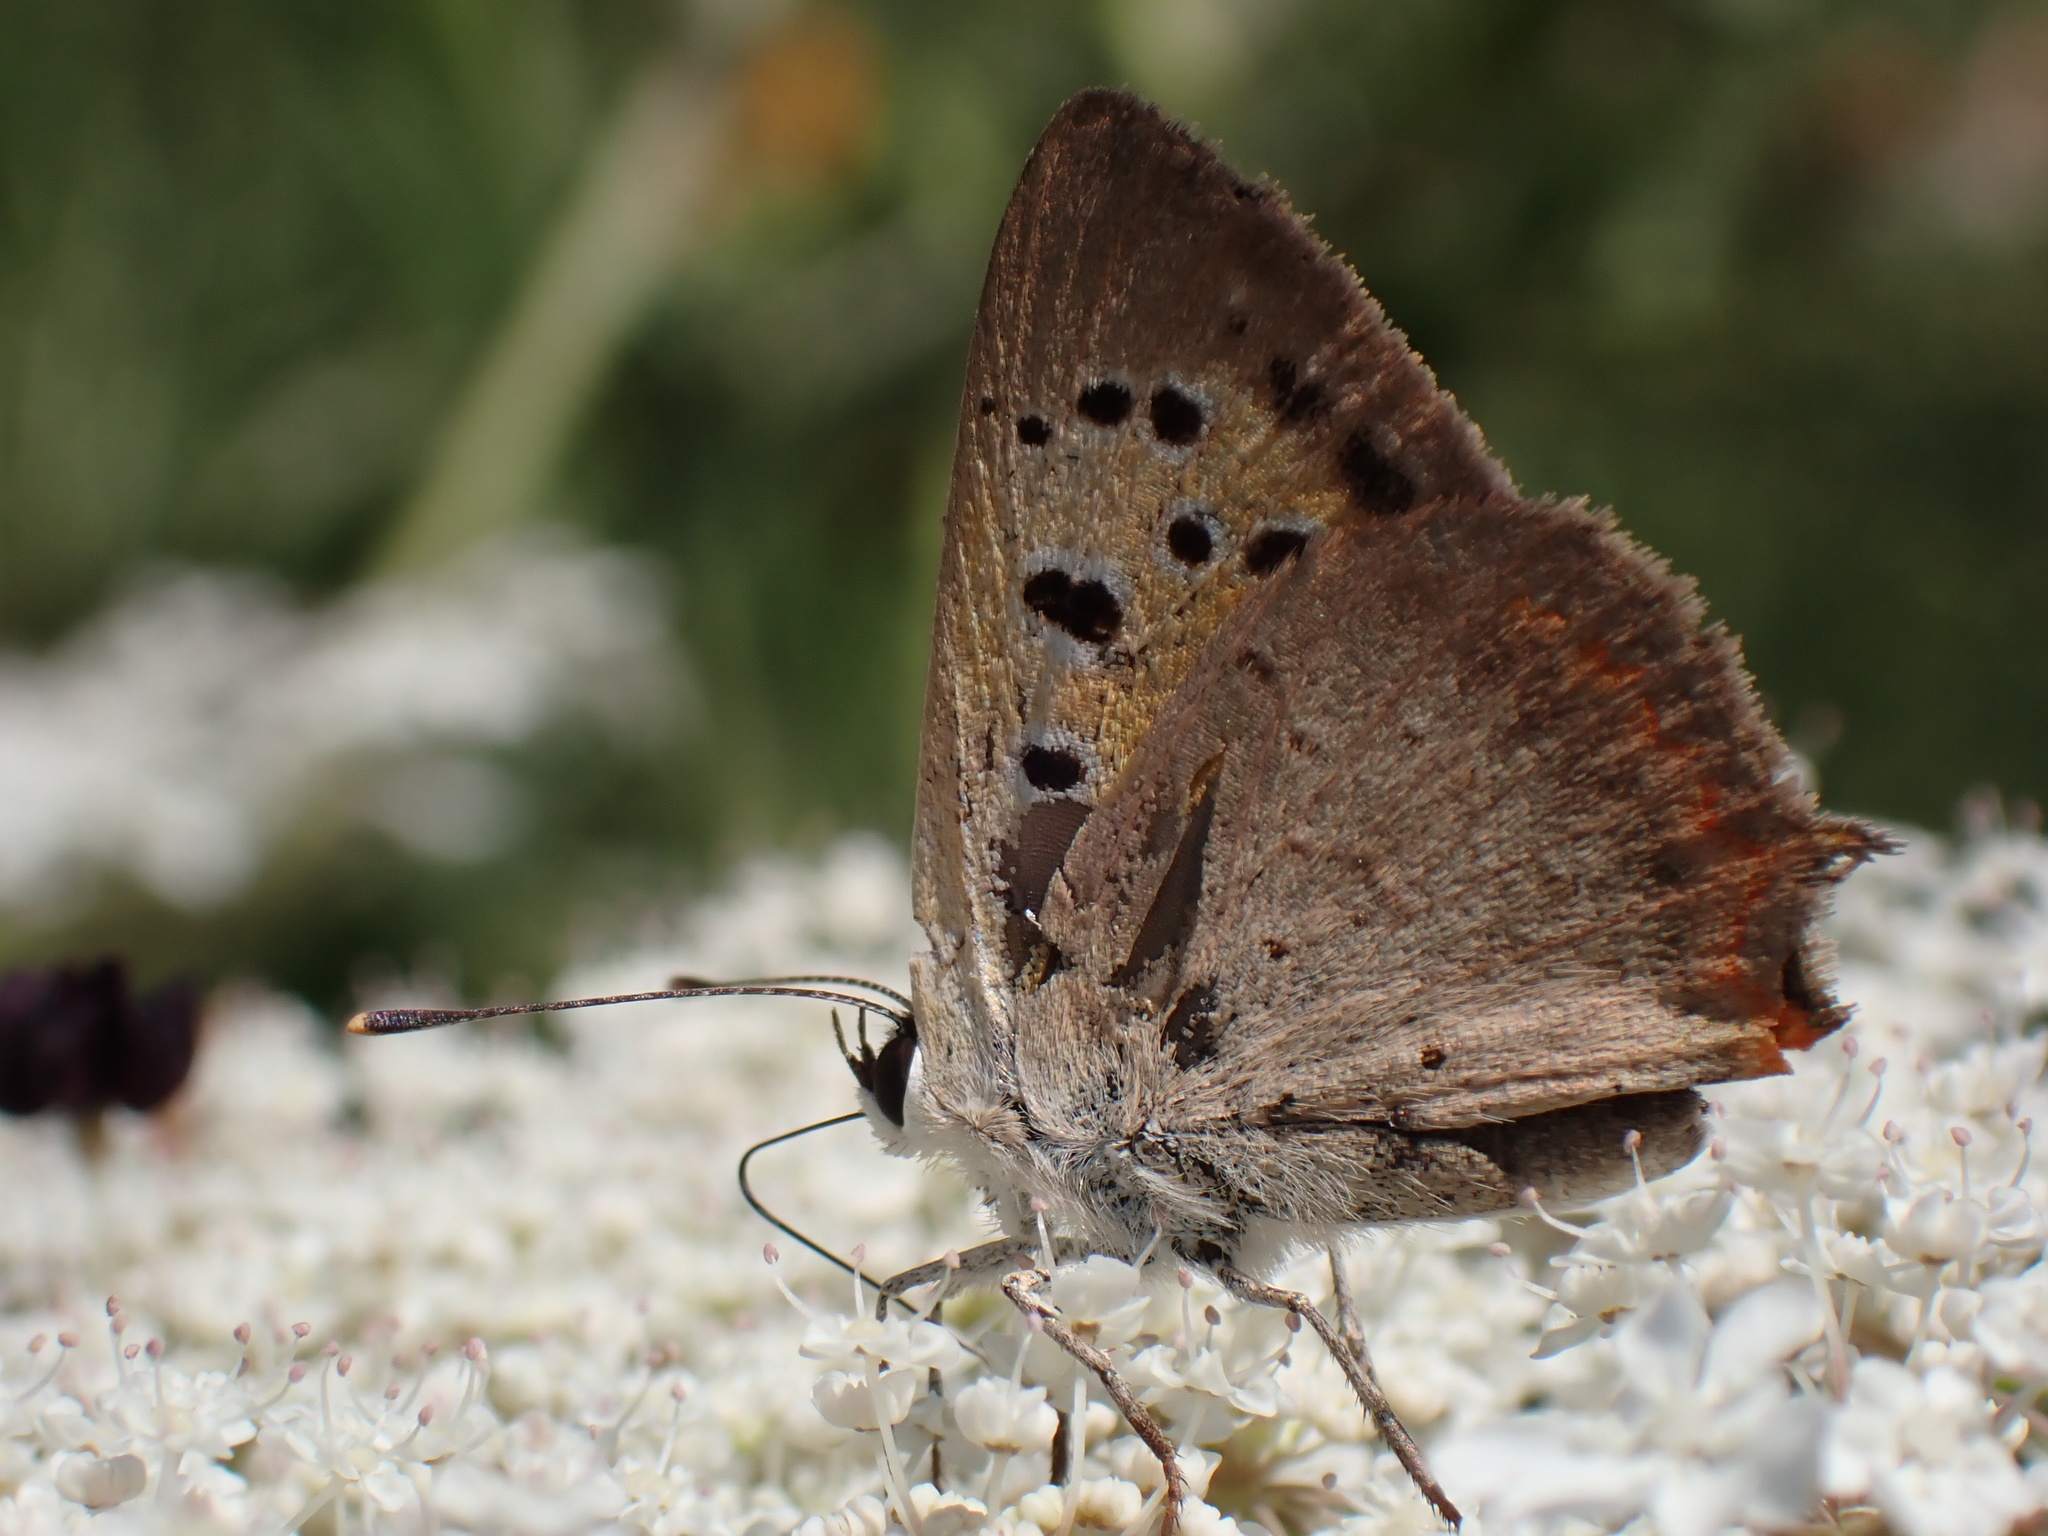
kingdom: Animalia
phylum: Arthropoda
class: Insecta
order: Lepidoptera
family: Lycaenidae
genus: Lycaena
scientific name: Lycaena phlaeas
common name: Small copper
